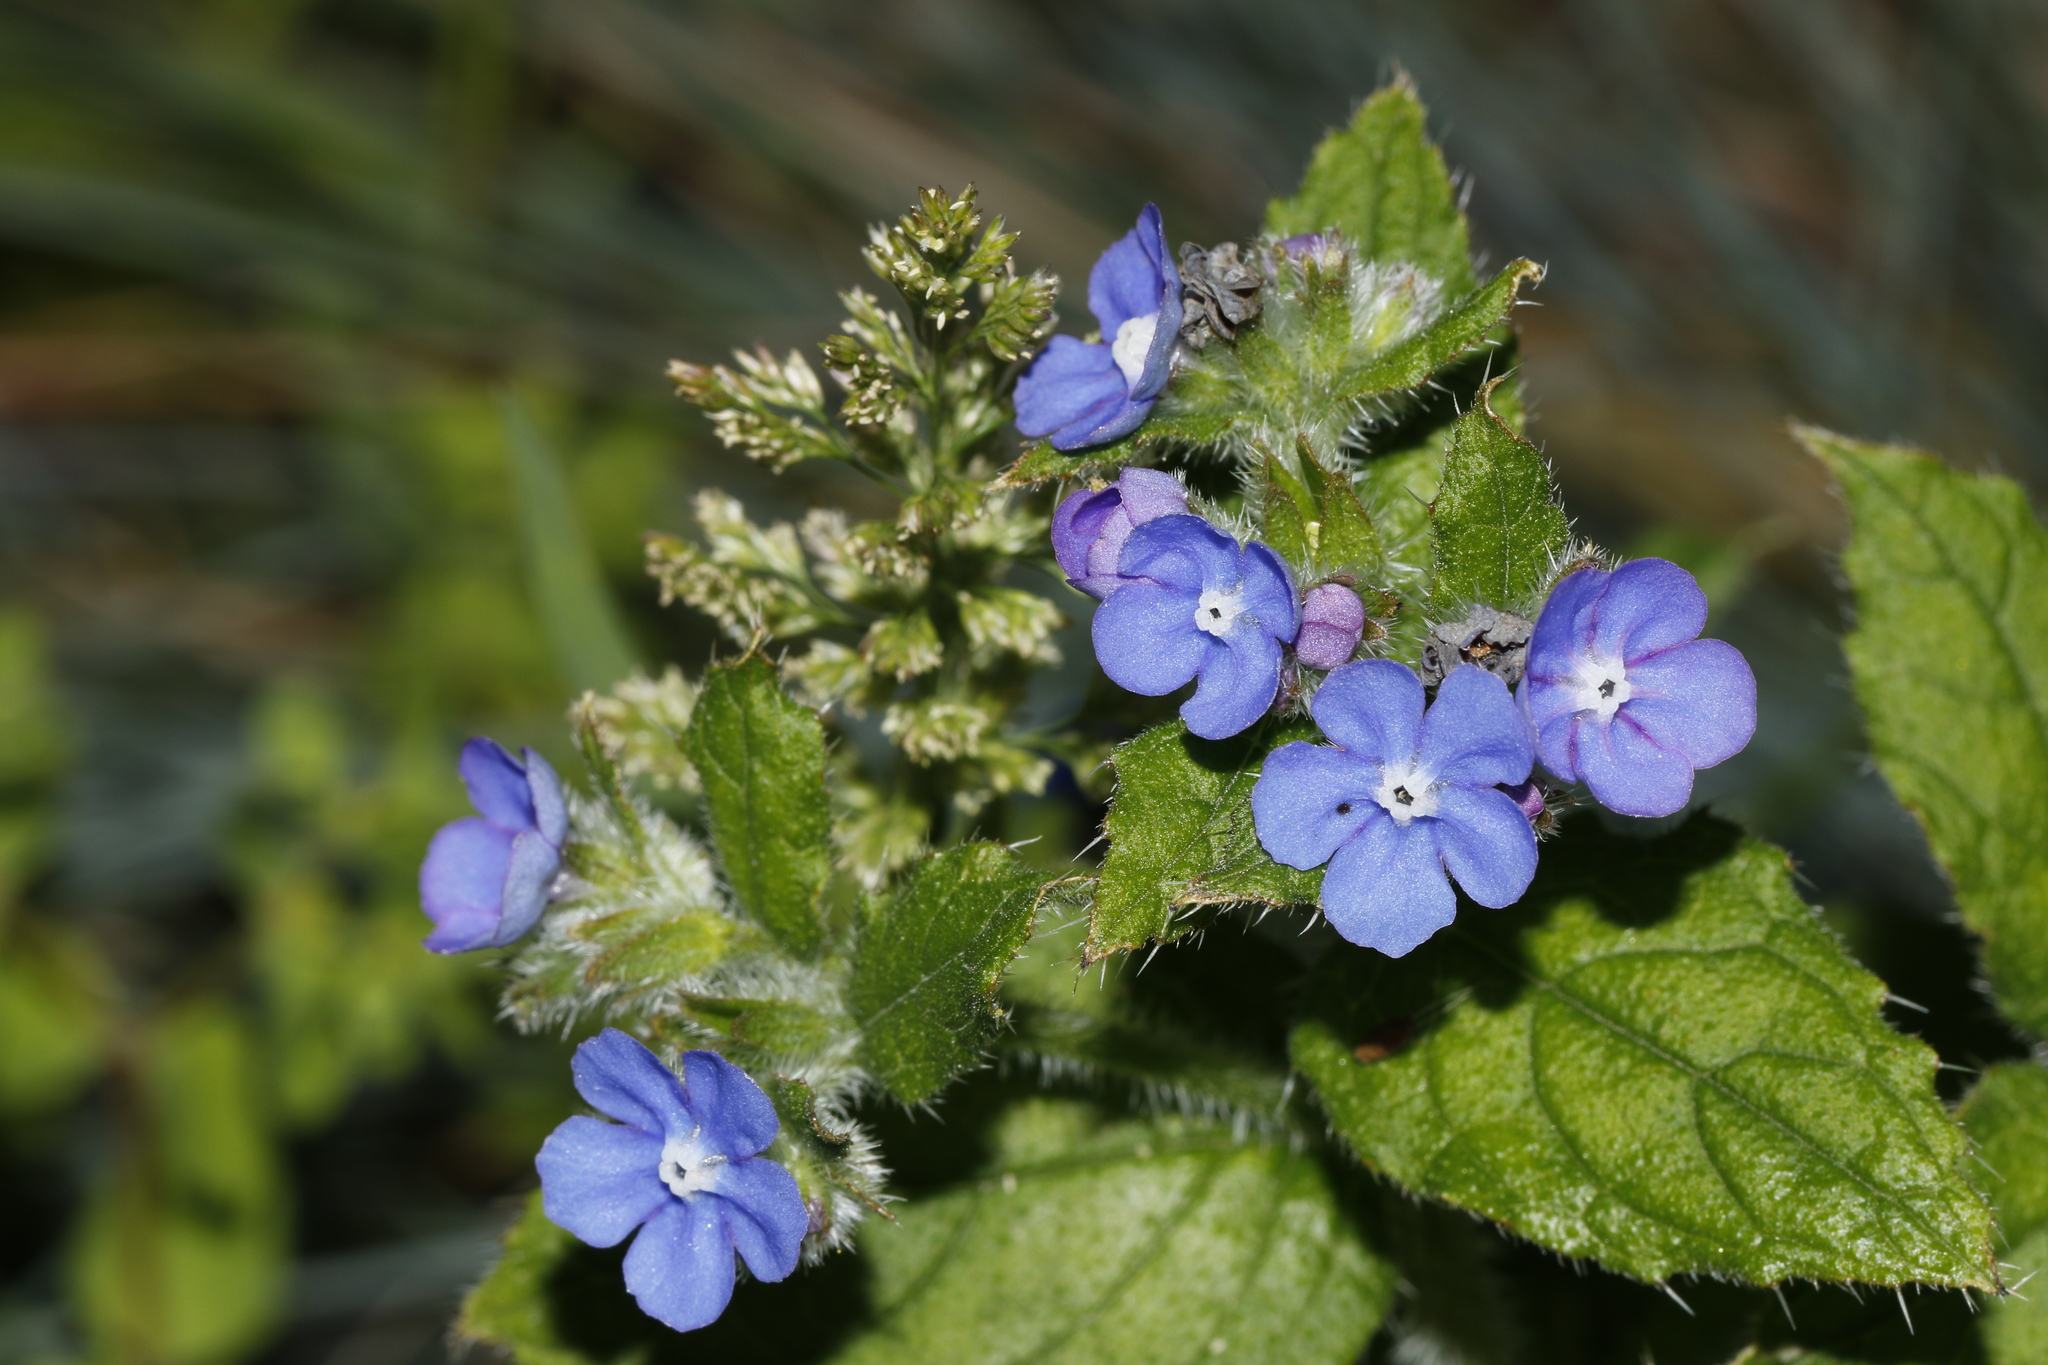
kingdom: Plantae
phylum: Tracheophyta
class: Magnoliopsida
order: Boraginales
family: Boraginaceae
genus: Pentaglottis
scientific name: Pentaglottis sempervirens
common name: Green alkanet
